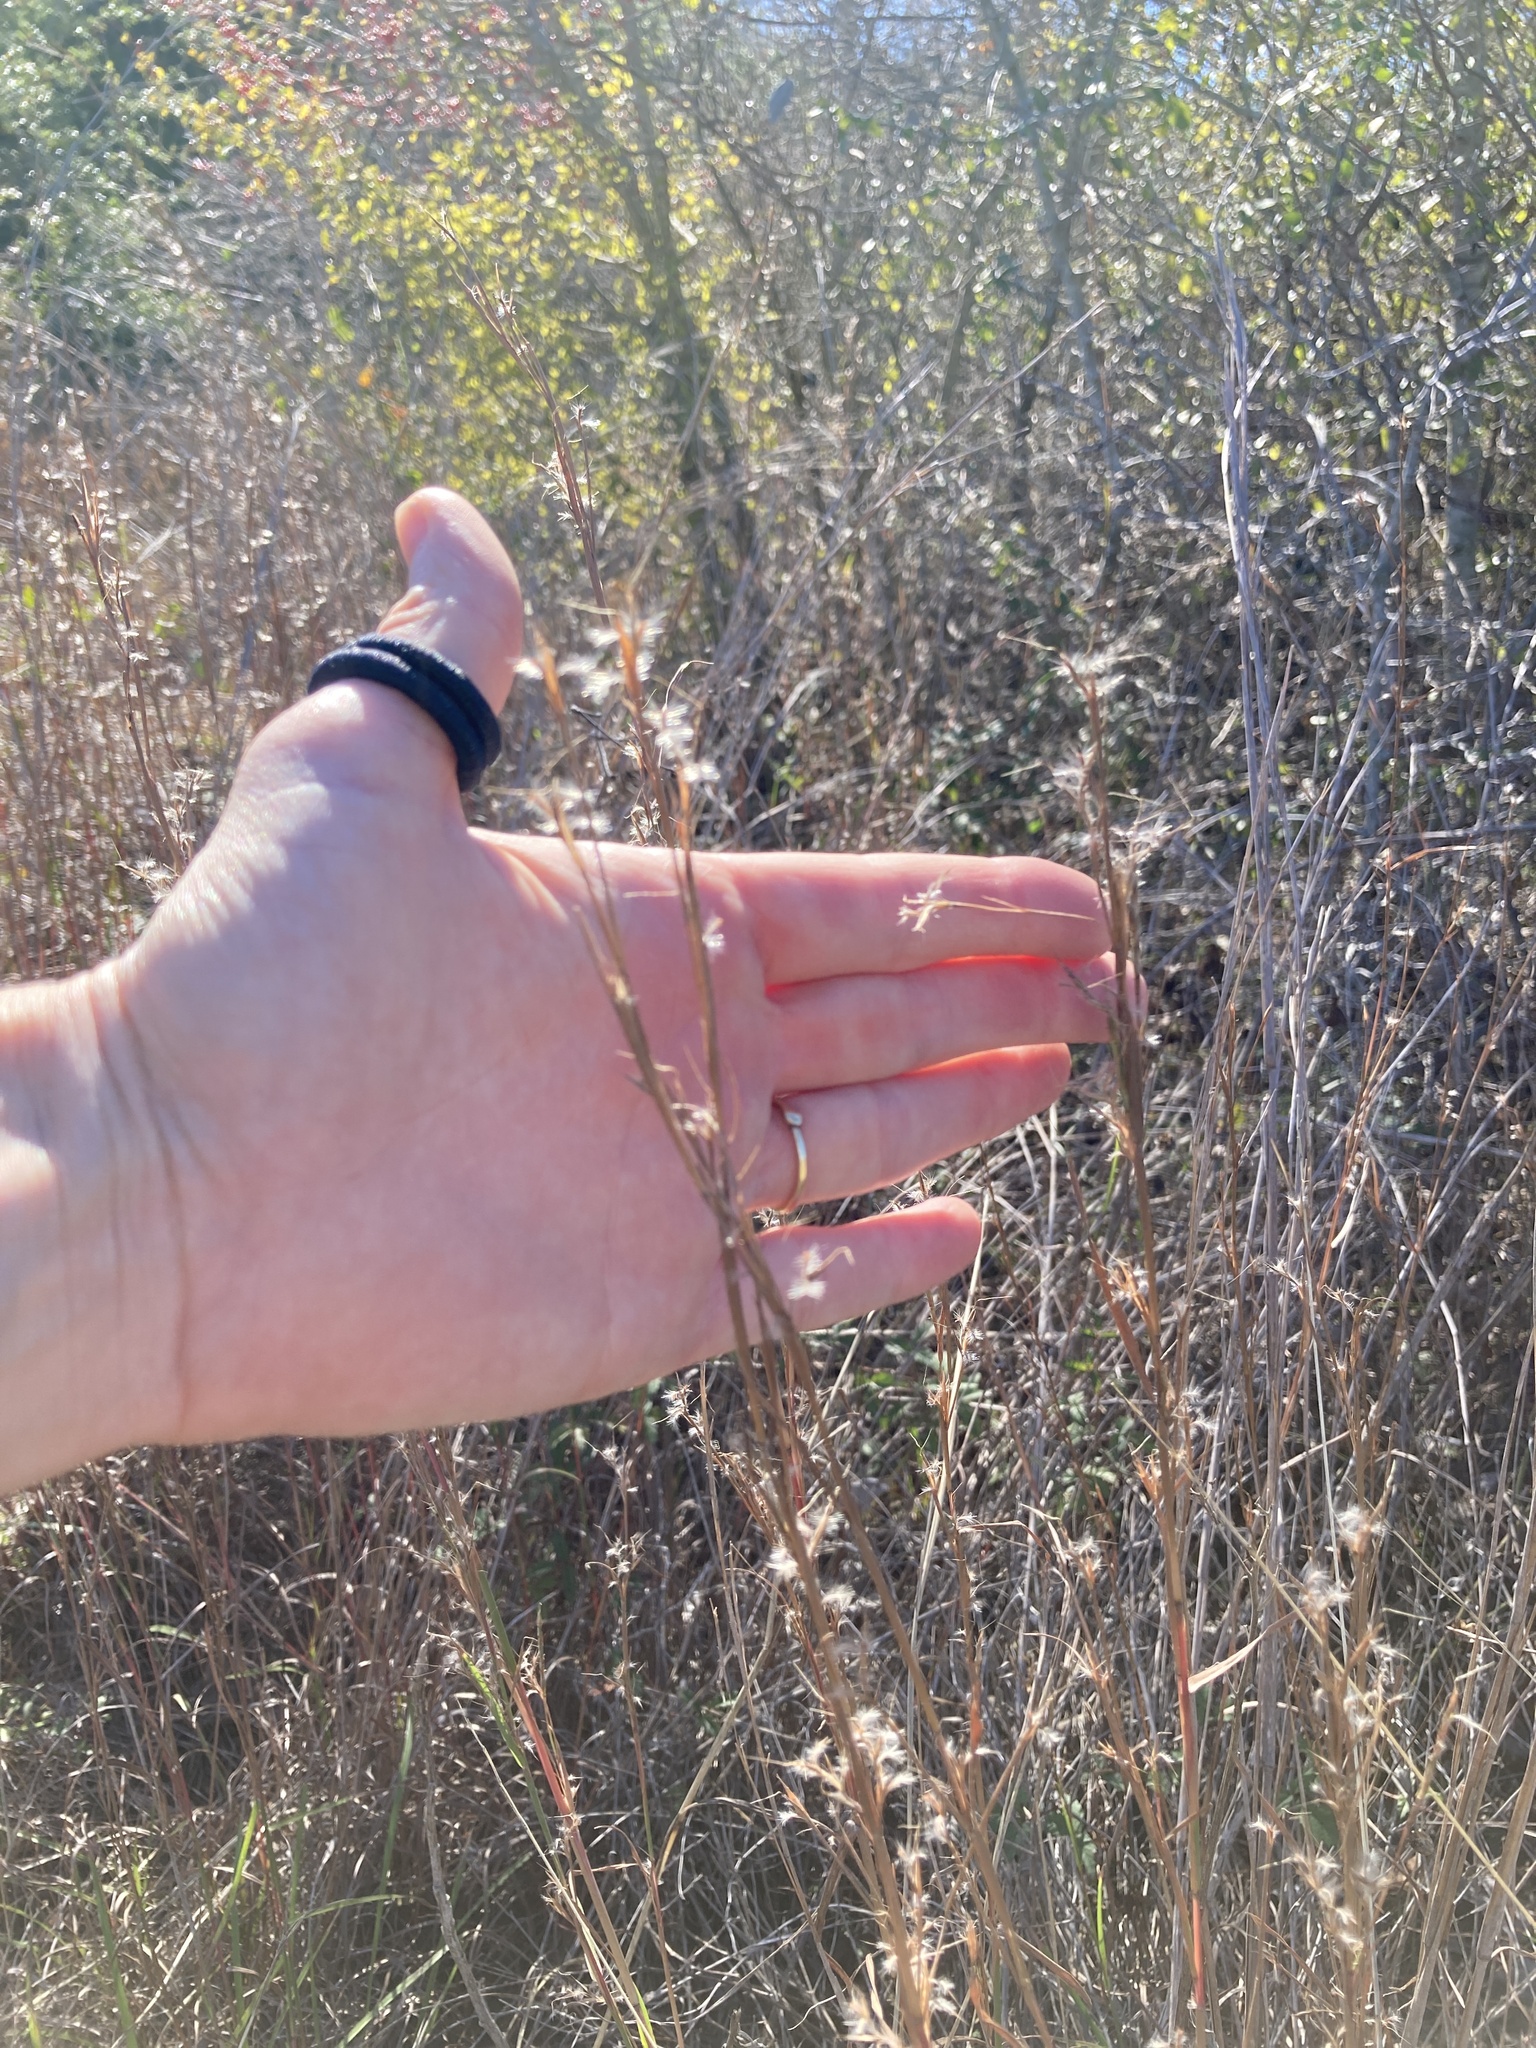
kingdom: Plantae
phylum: Tracheophyta
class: Liliopsida
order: Poales
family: Poaceae
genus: Schizachyrium
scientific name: Schizachyrium scoparium
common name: Little bluestem
